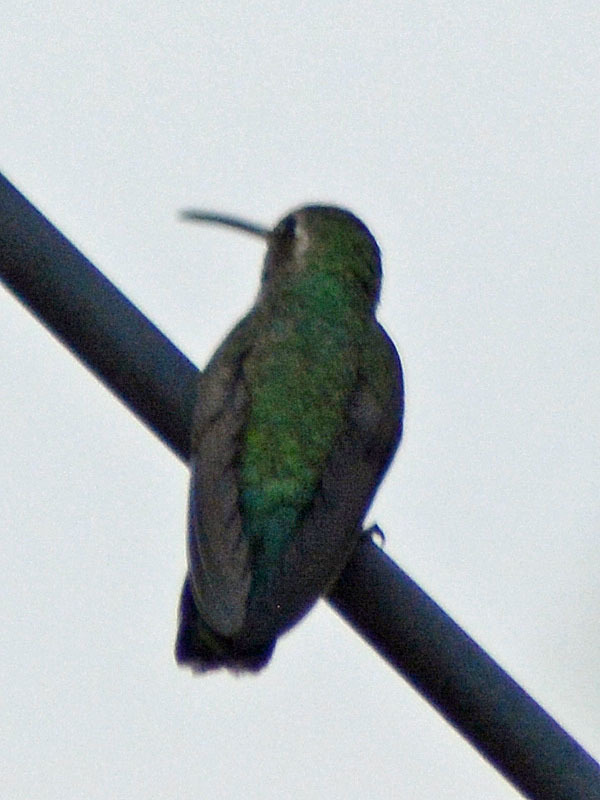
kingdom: Animalia
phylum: Chordata
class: Aves
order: Apodiformes
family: Trochilidae
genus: Cynanthus
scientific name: Cynanthus latirostris
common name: Broad-billed hummingbird
